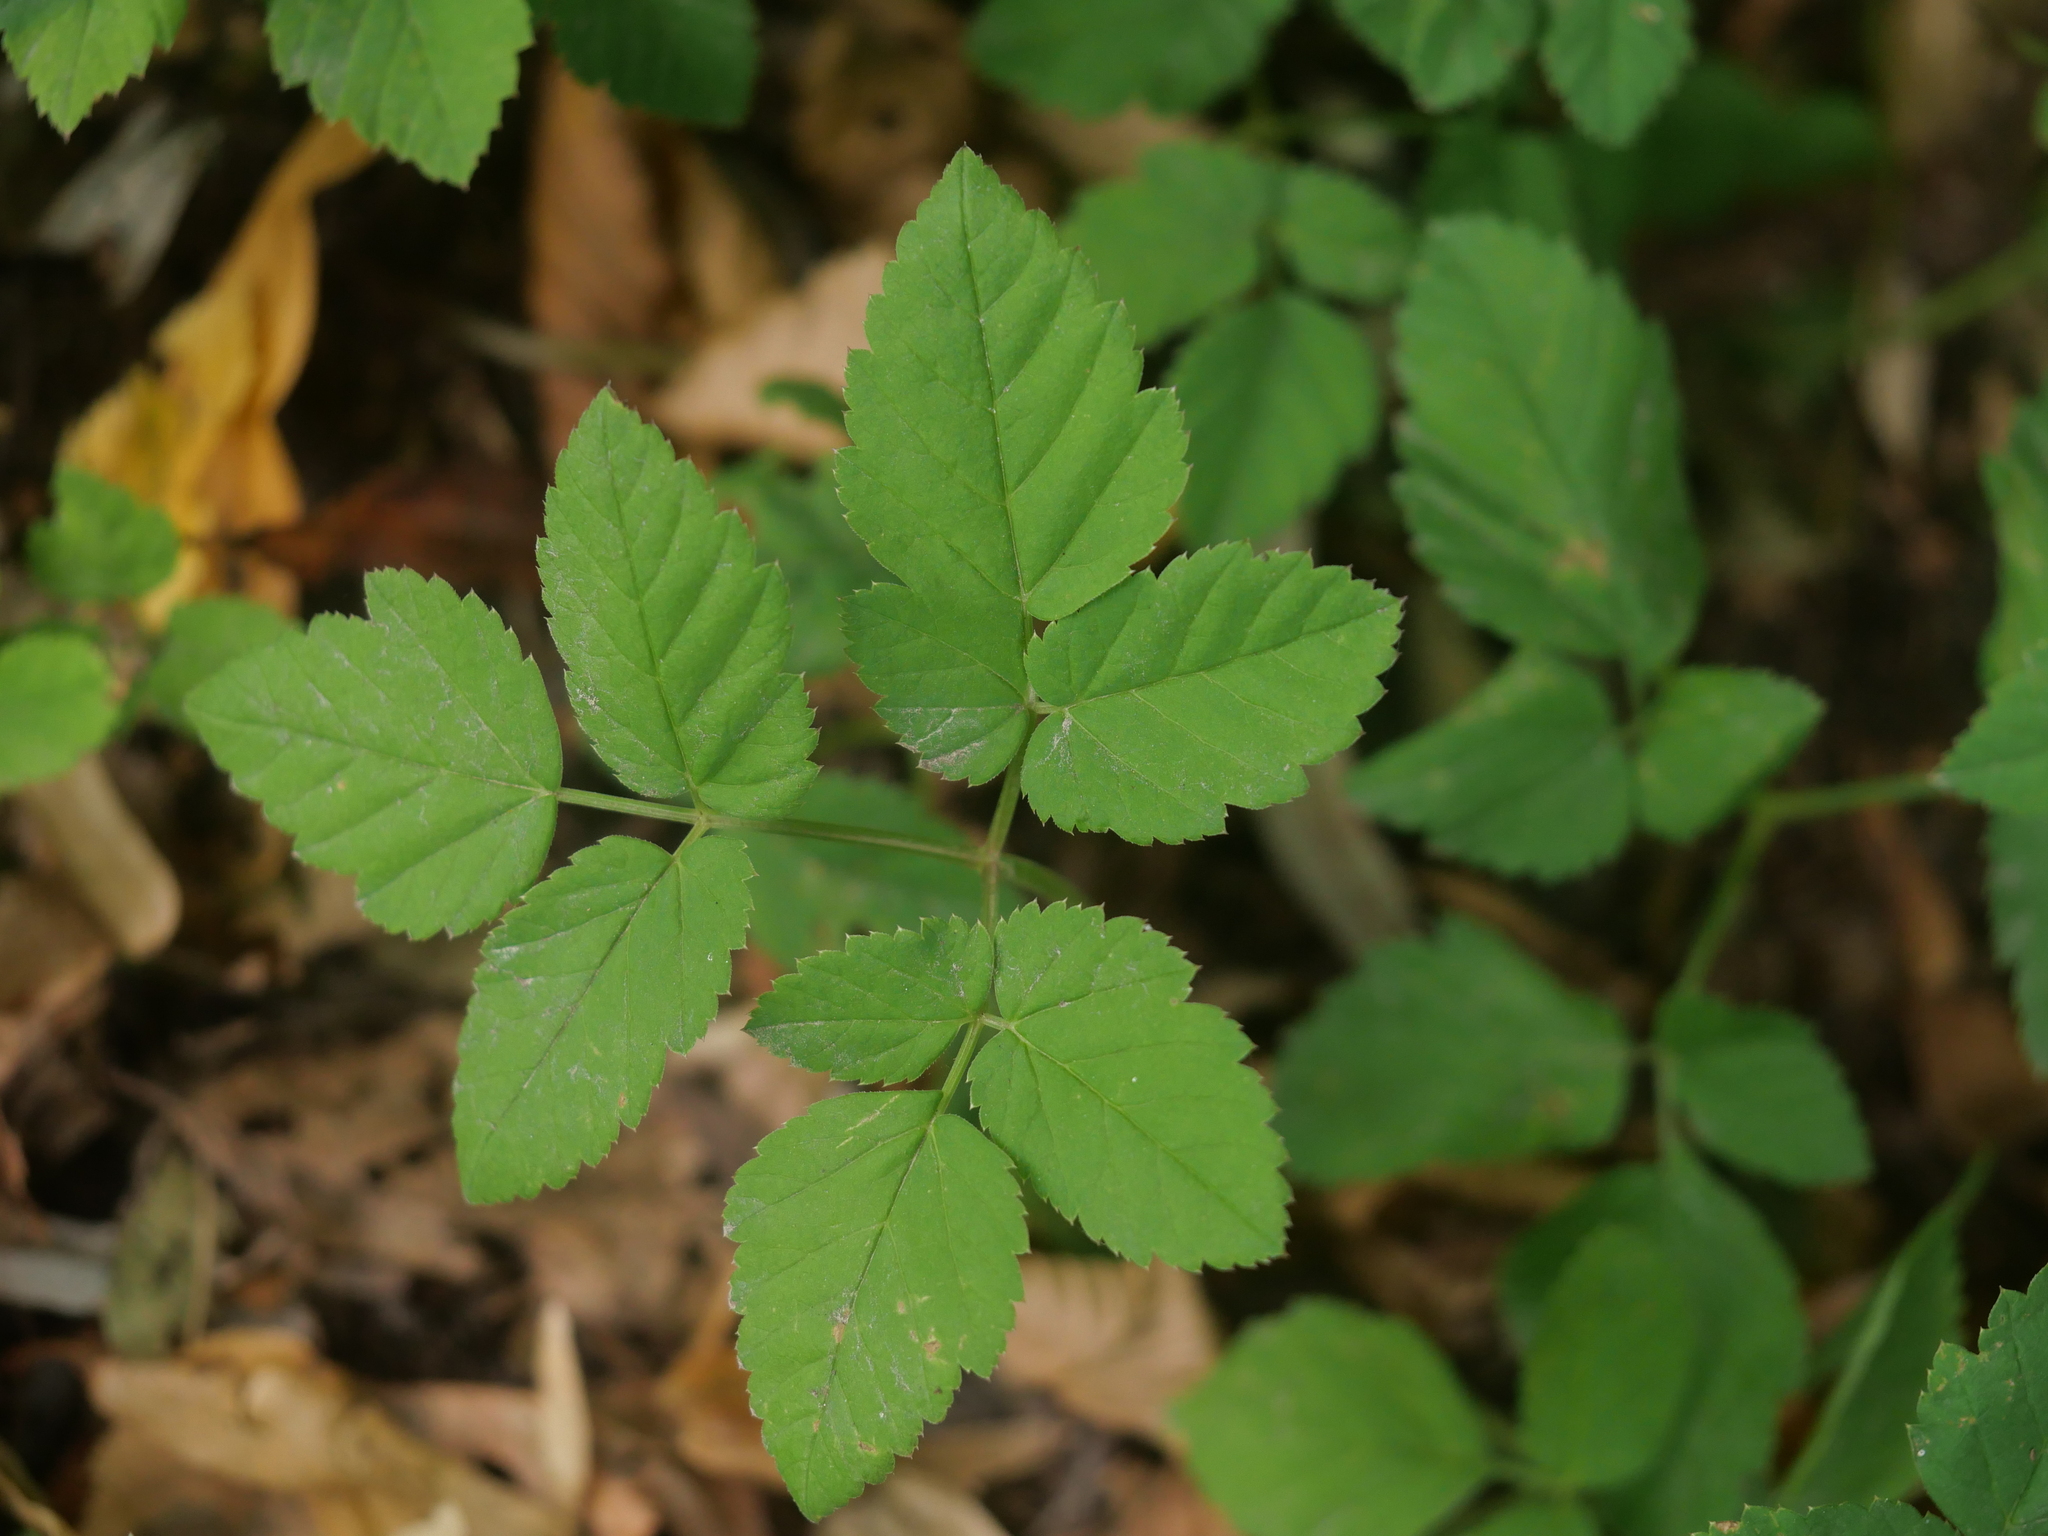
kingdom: Plantae
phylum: Tracheophyta
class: Magnoliopsida
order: Apiales
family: Apiaceae
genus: Aegopodium
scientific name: Aegopodium podagraria
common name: Ground-elder
